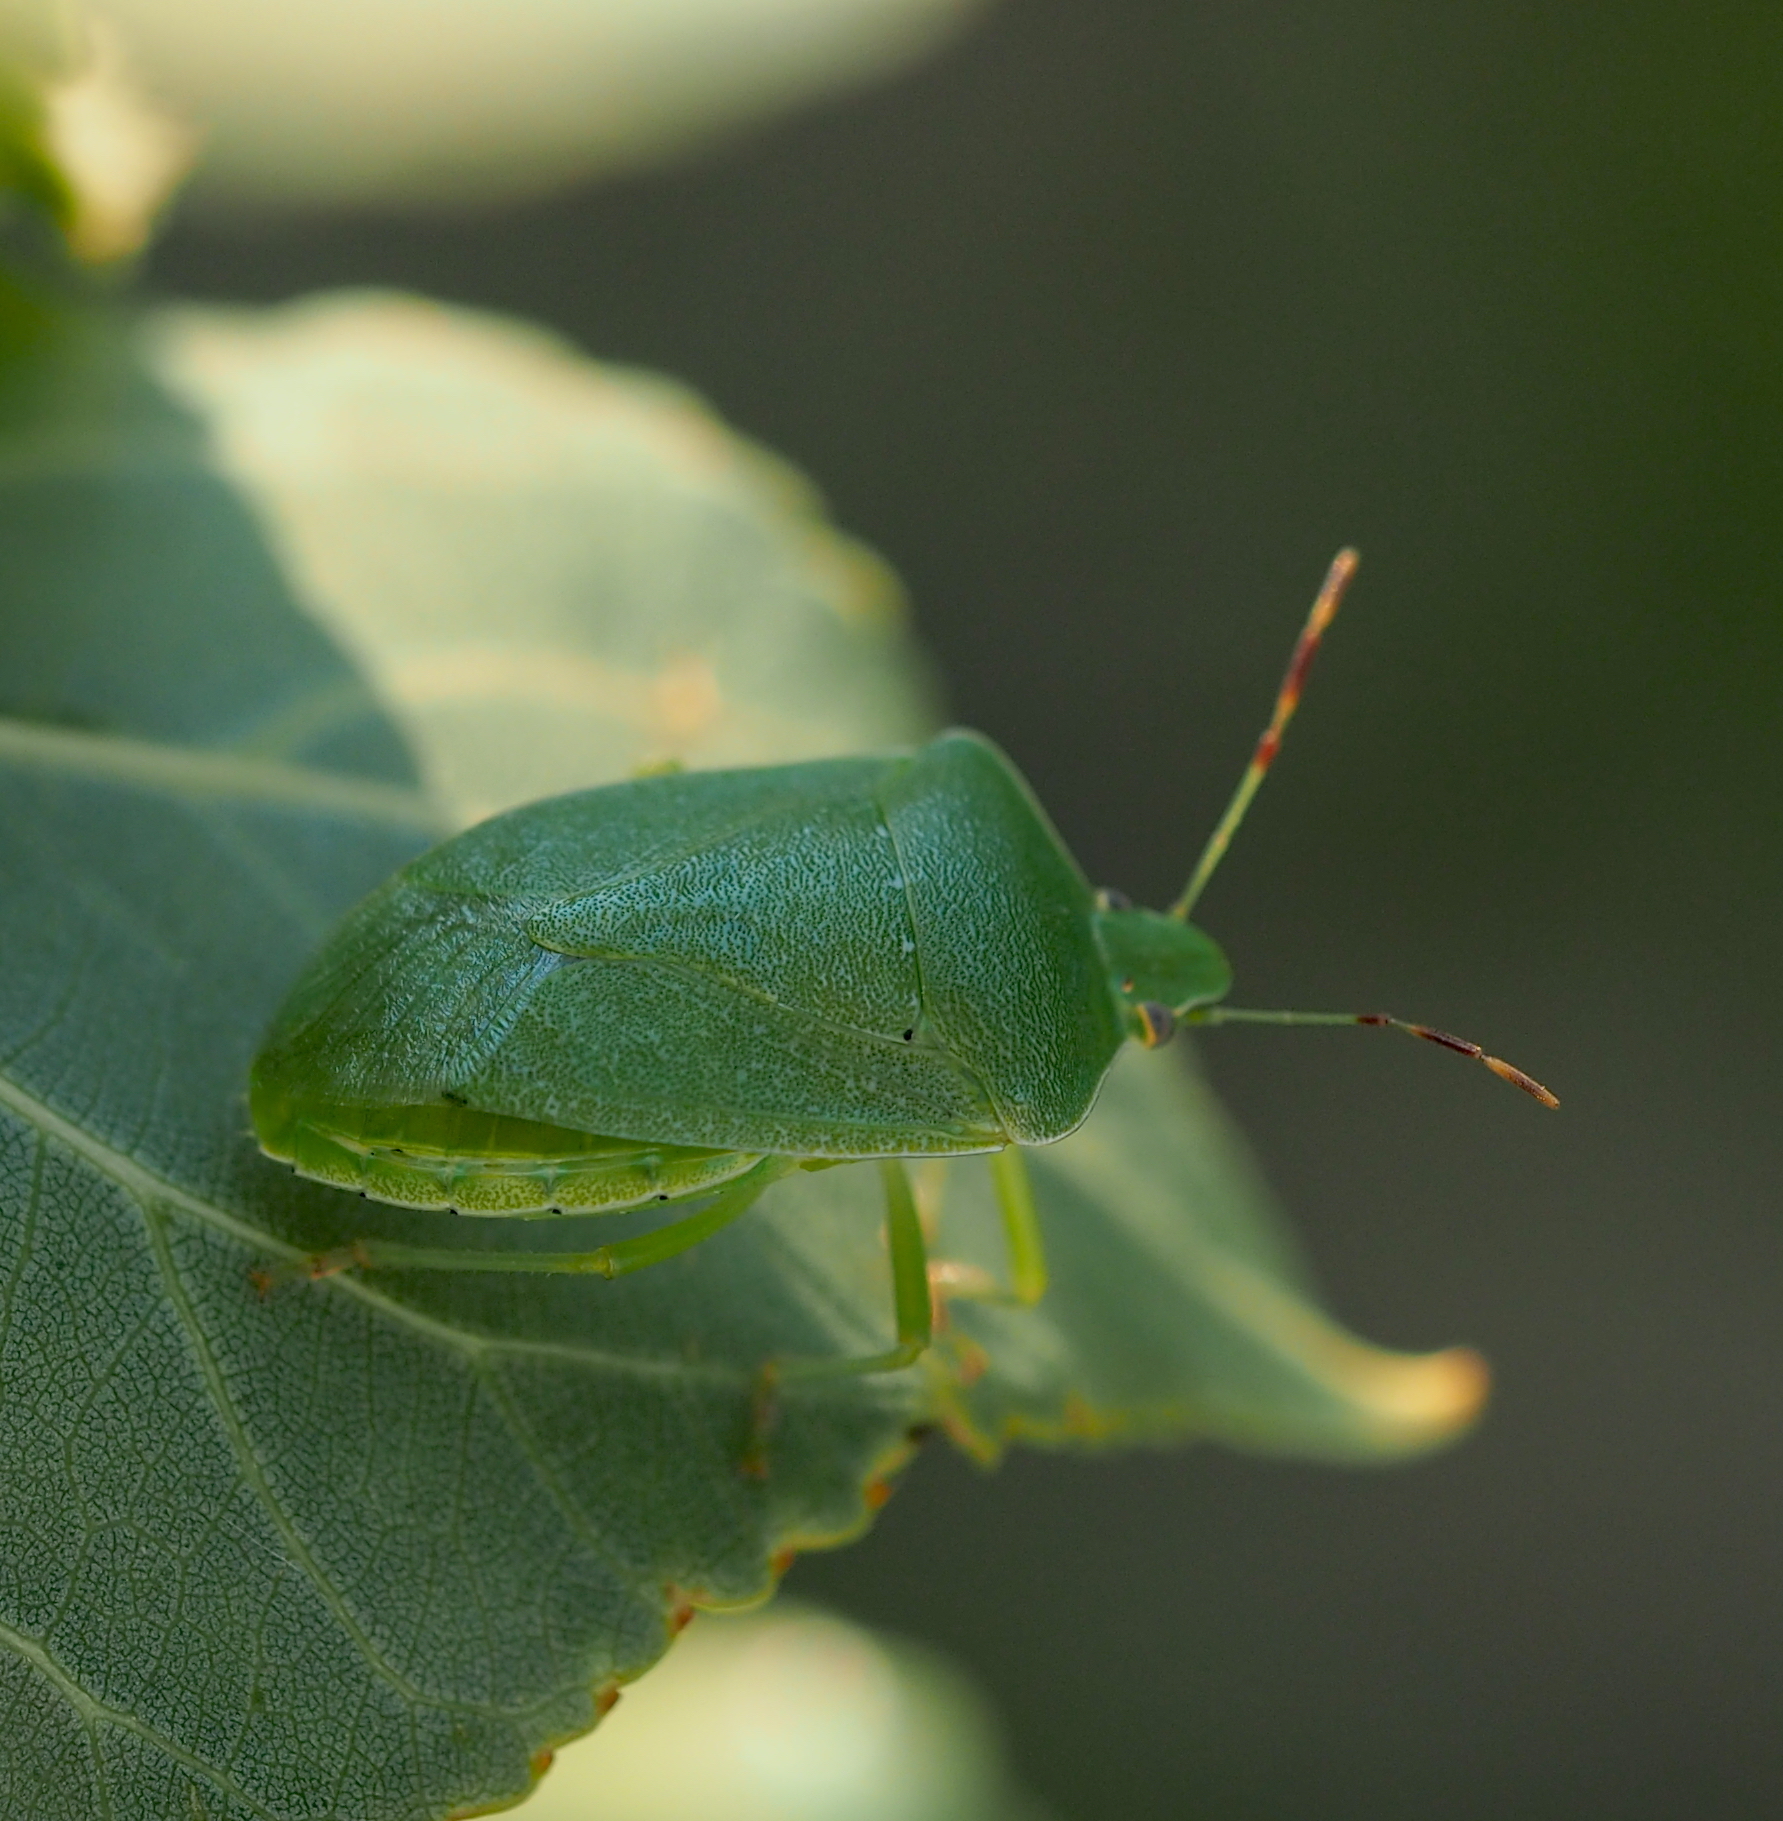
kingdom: Animalia
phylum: Arthropoda
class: Insecta
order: Hemiptera
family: Pentatomidae
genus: Nezara
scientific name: Nezara viridula
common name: Southern green stink bug
